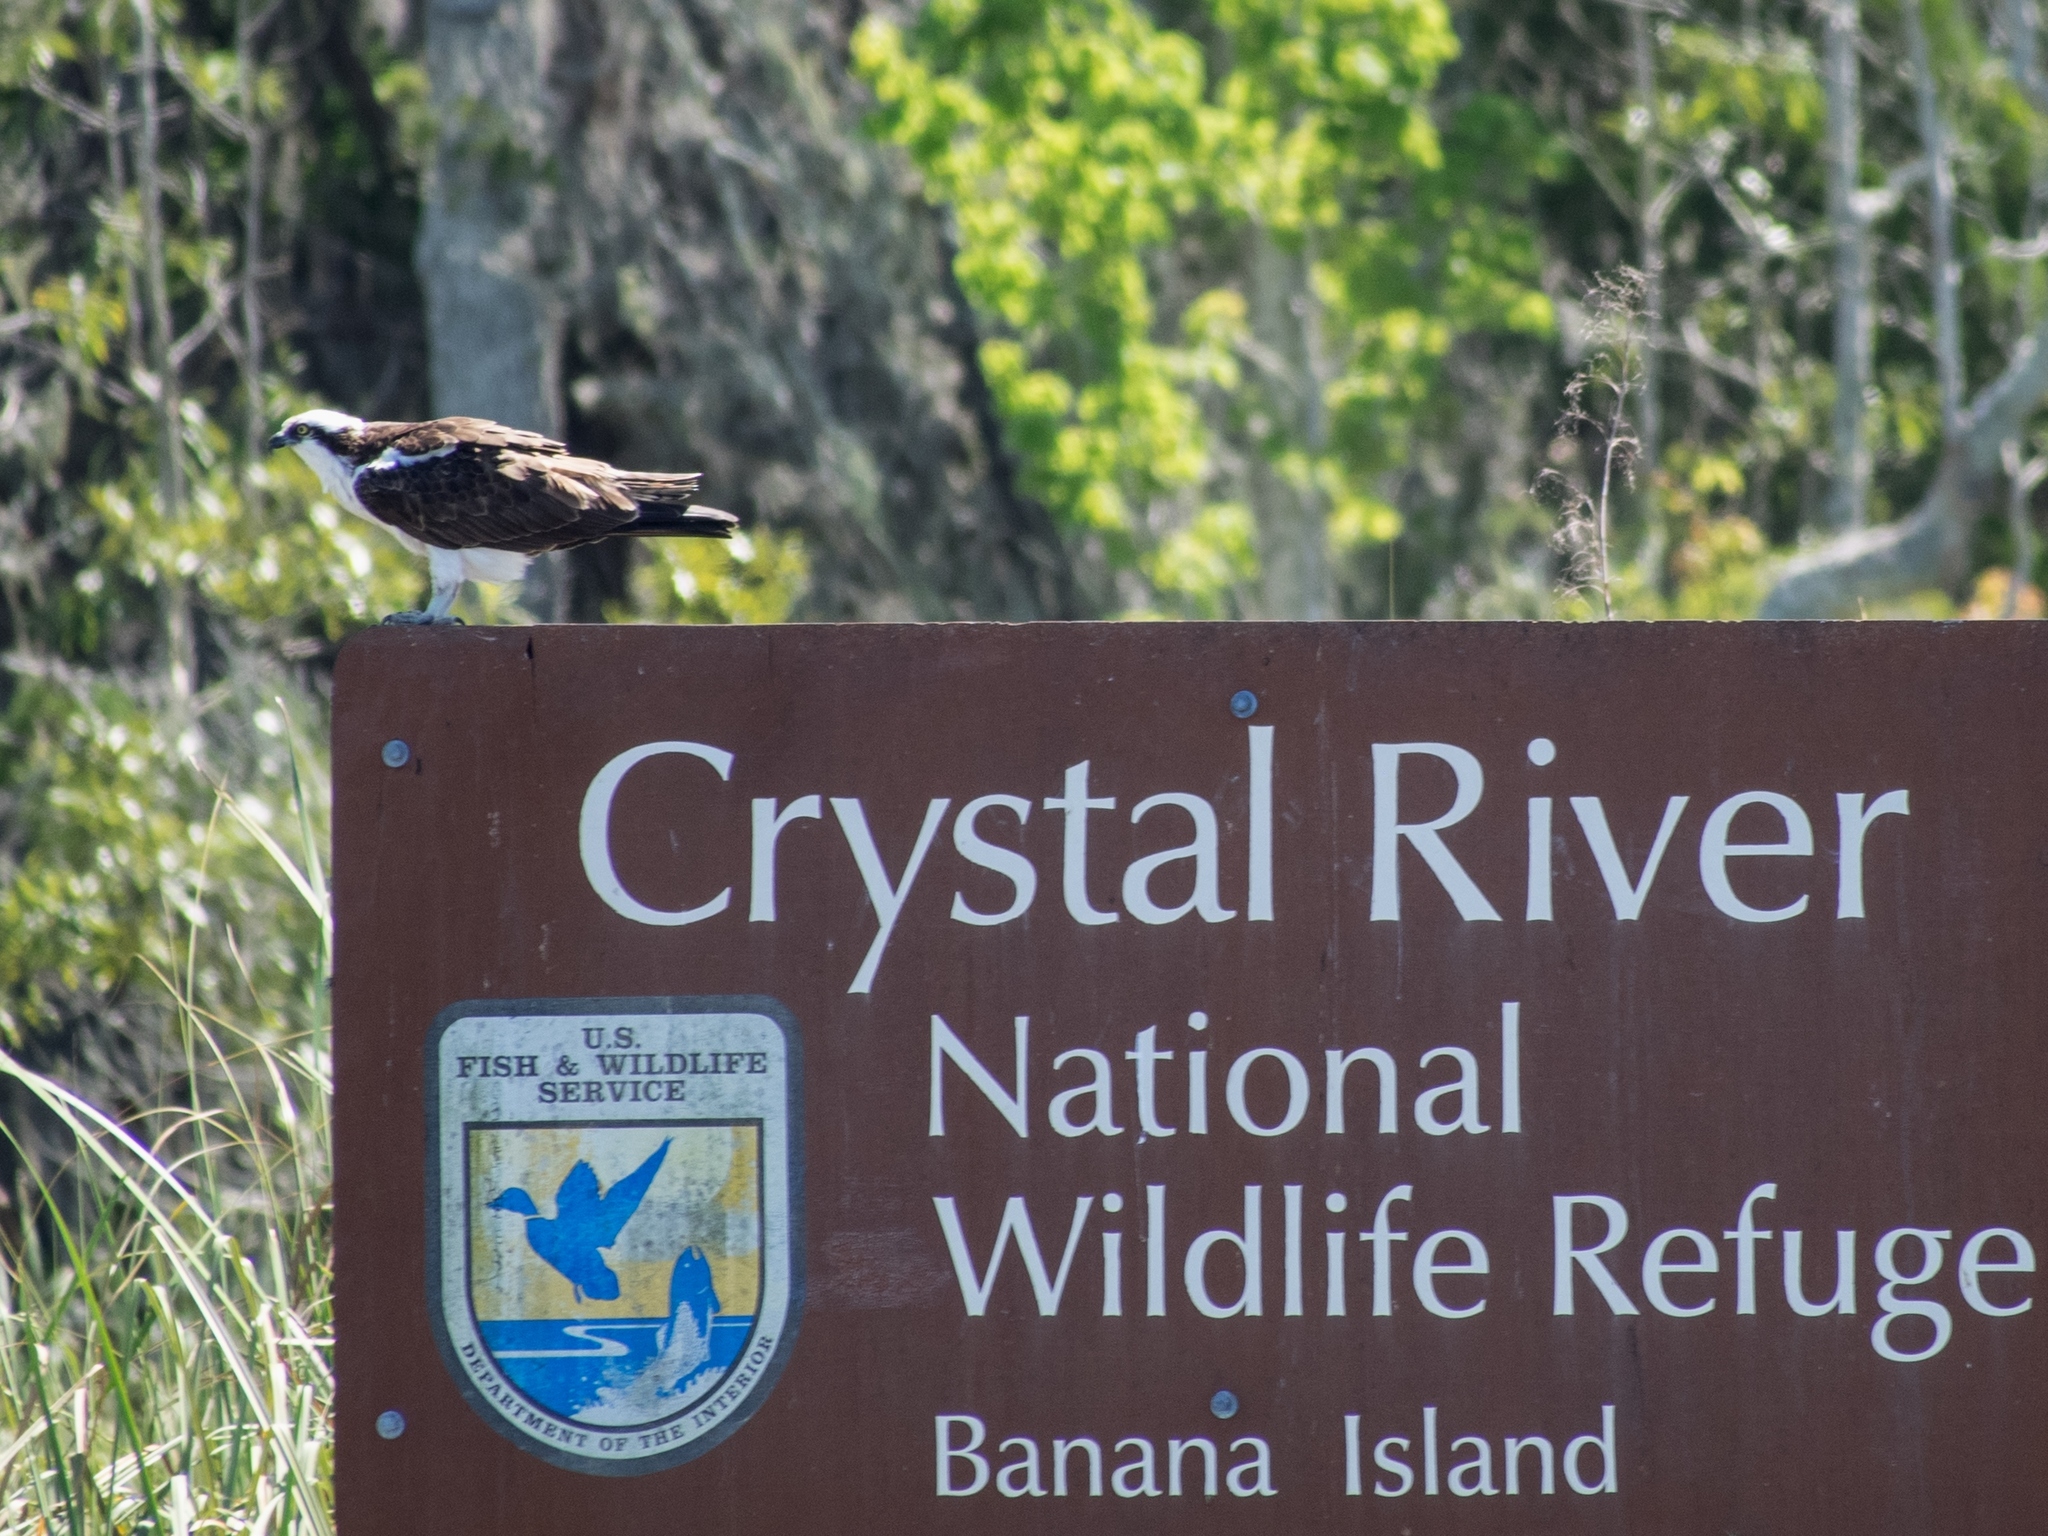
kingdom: Animalia
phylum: Chordata
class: Aves
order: Accipitriformes
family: Pandionidae
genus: Pandion
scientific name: Pandion haliaetus
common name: Osprey
